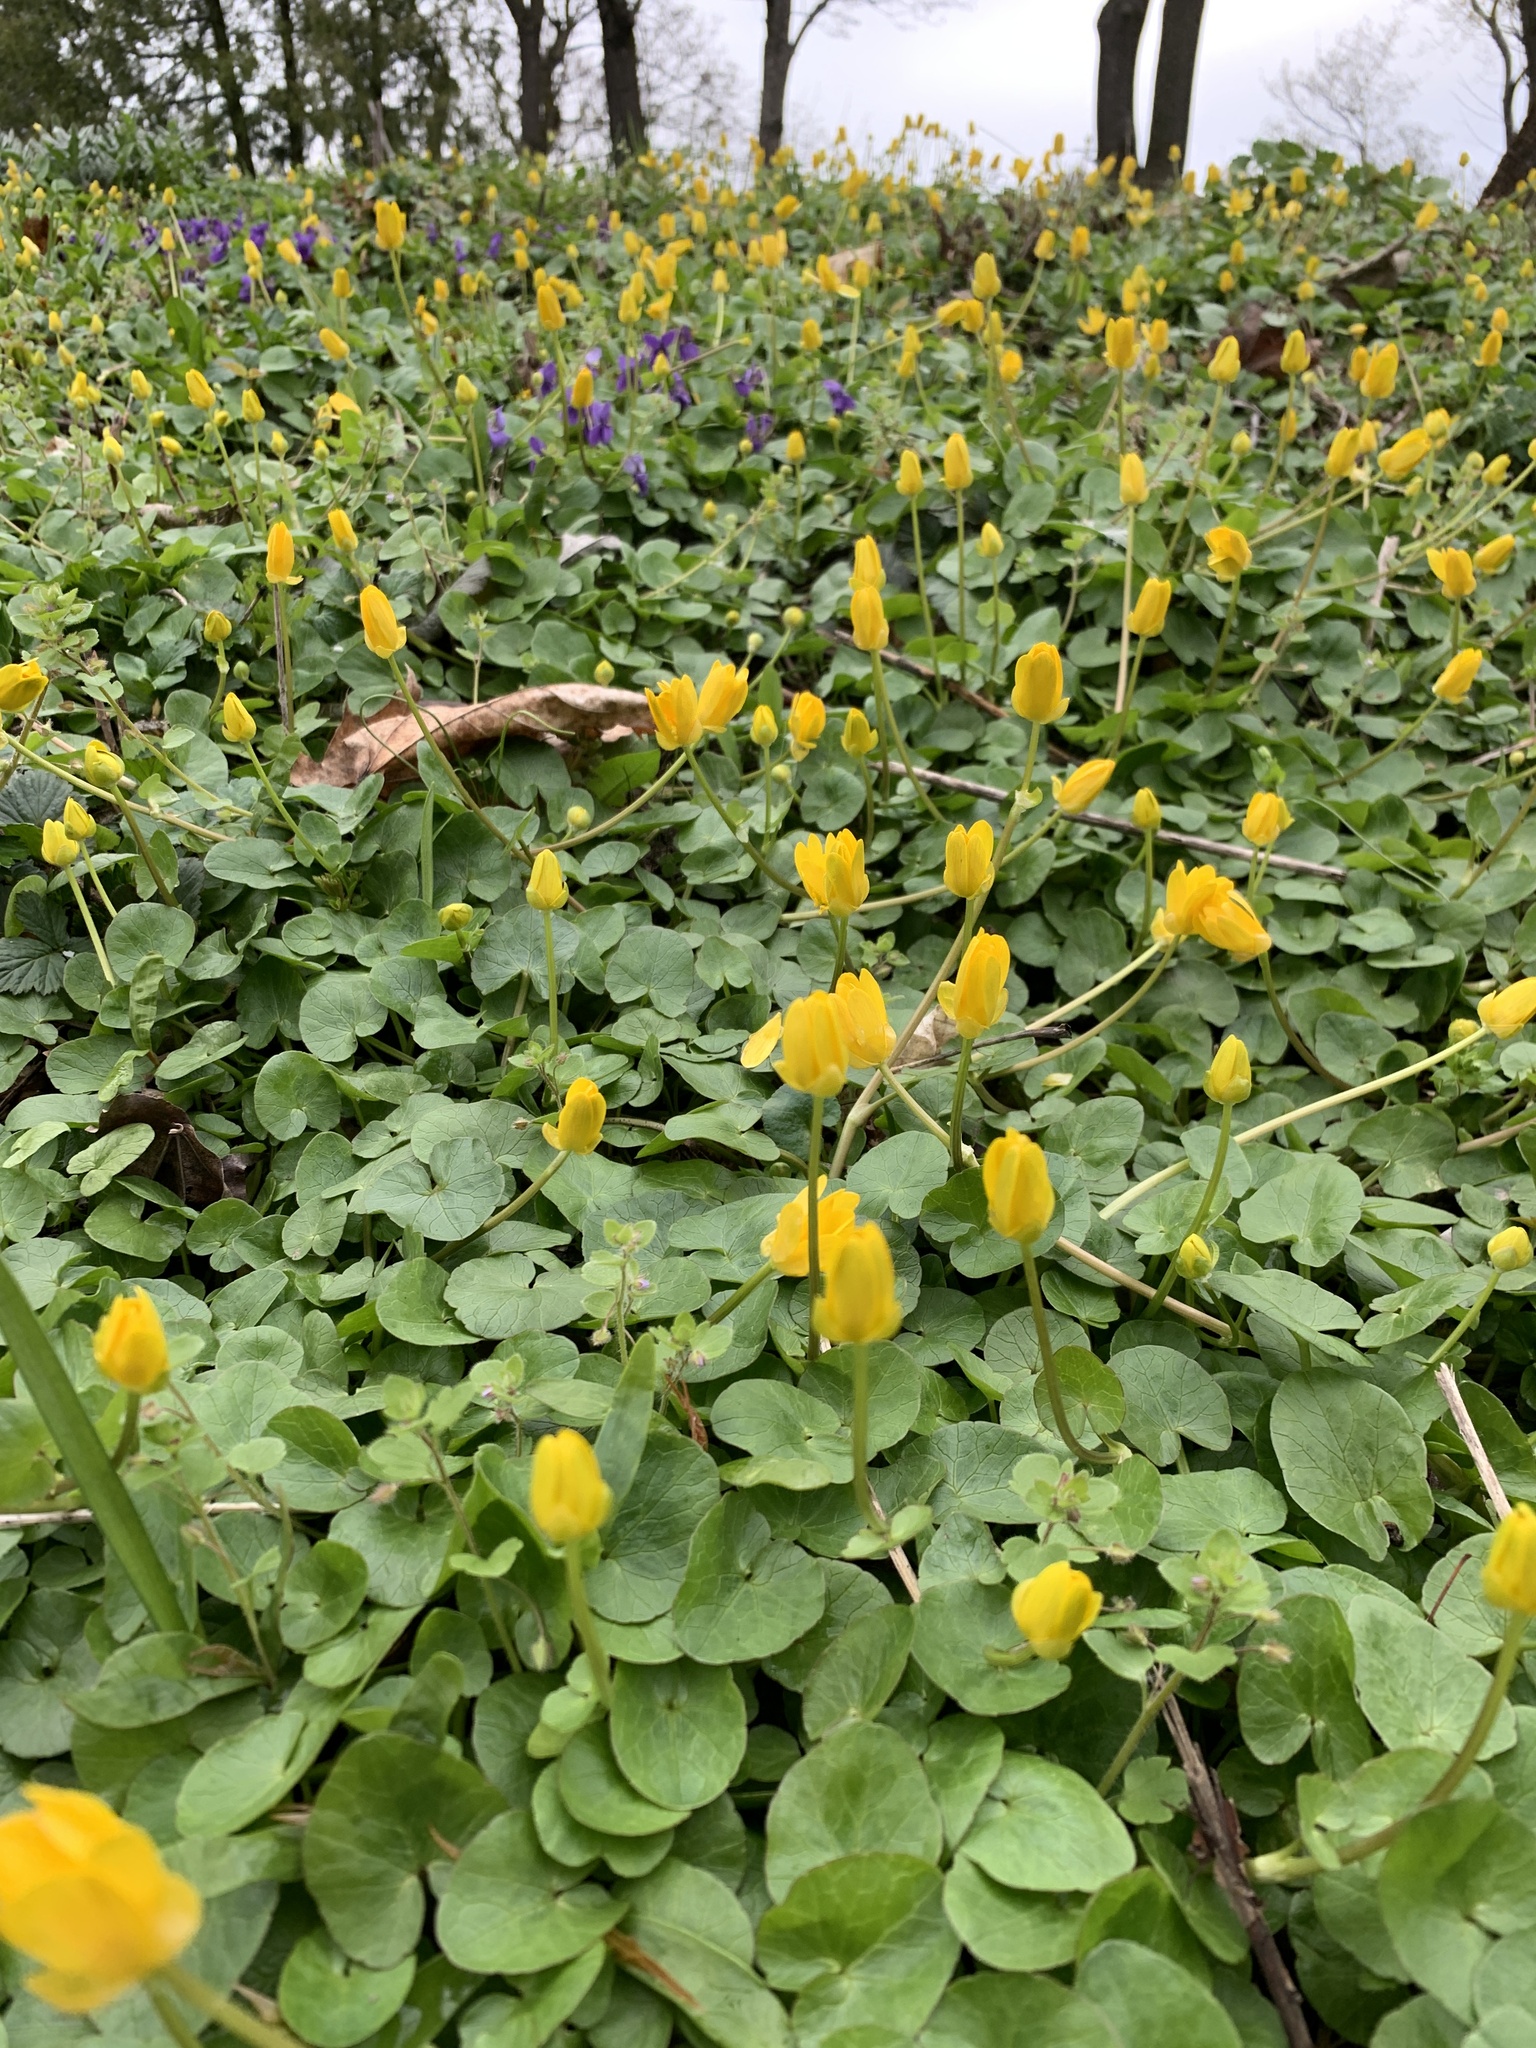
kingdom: Plantae
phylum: Tracheophyta
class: Magnoliopsida
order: Ranunculales
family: Ranunculaceae
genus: Ficaria
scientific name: Ficaria verna
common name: Lesser celandine
